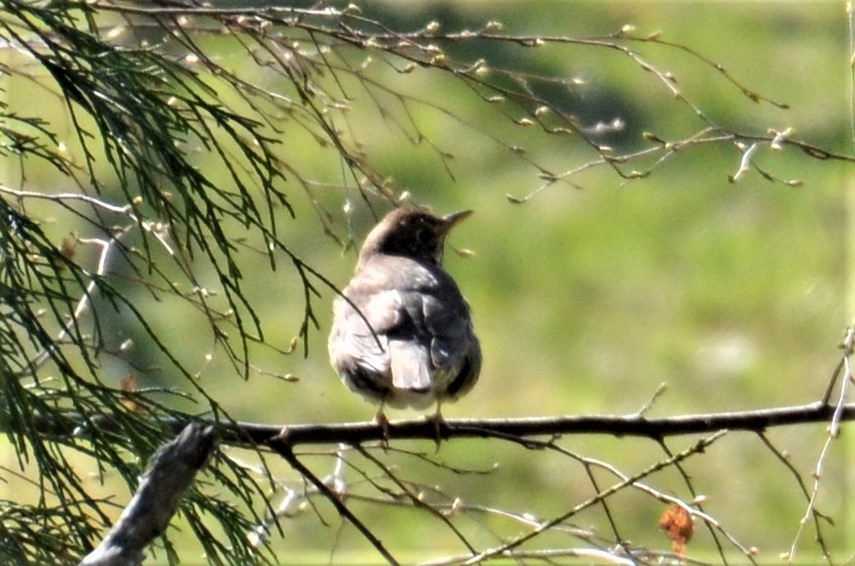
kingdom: Animalia
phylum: Chordata
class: Aves
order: Passeriformes
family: Turdidae
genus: Turdus
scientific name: Turdus philomelos
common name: Song thrush
